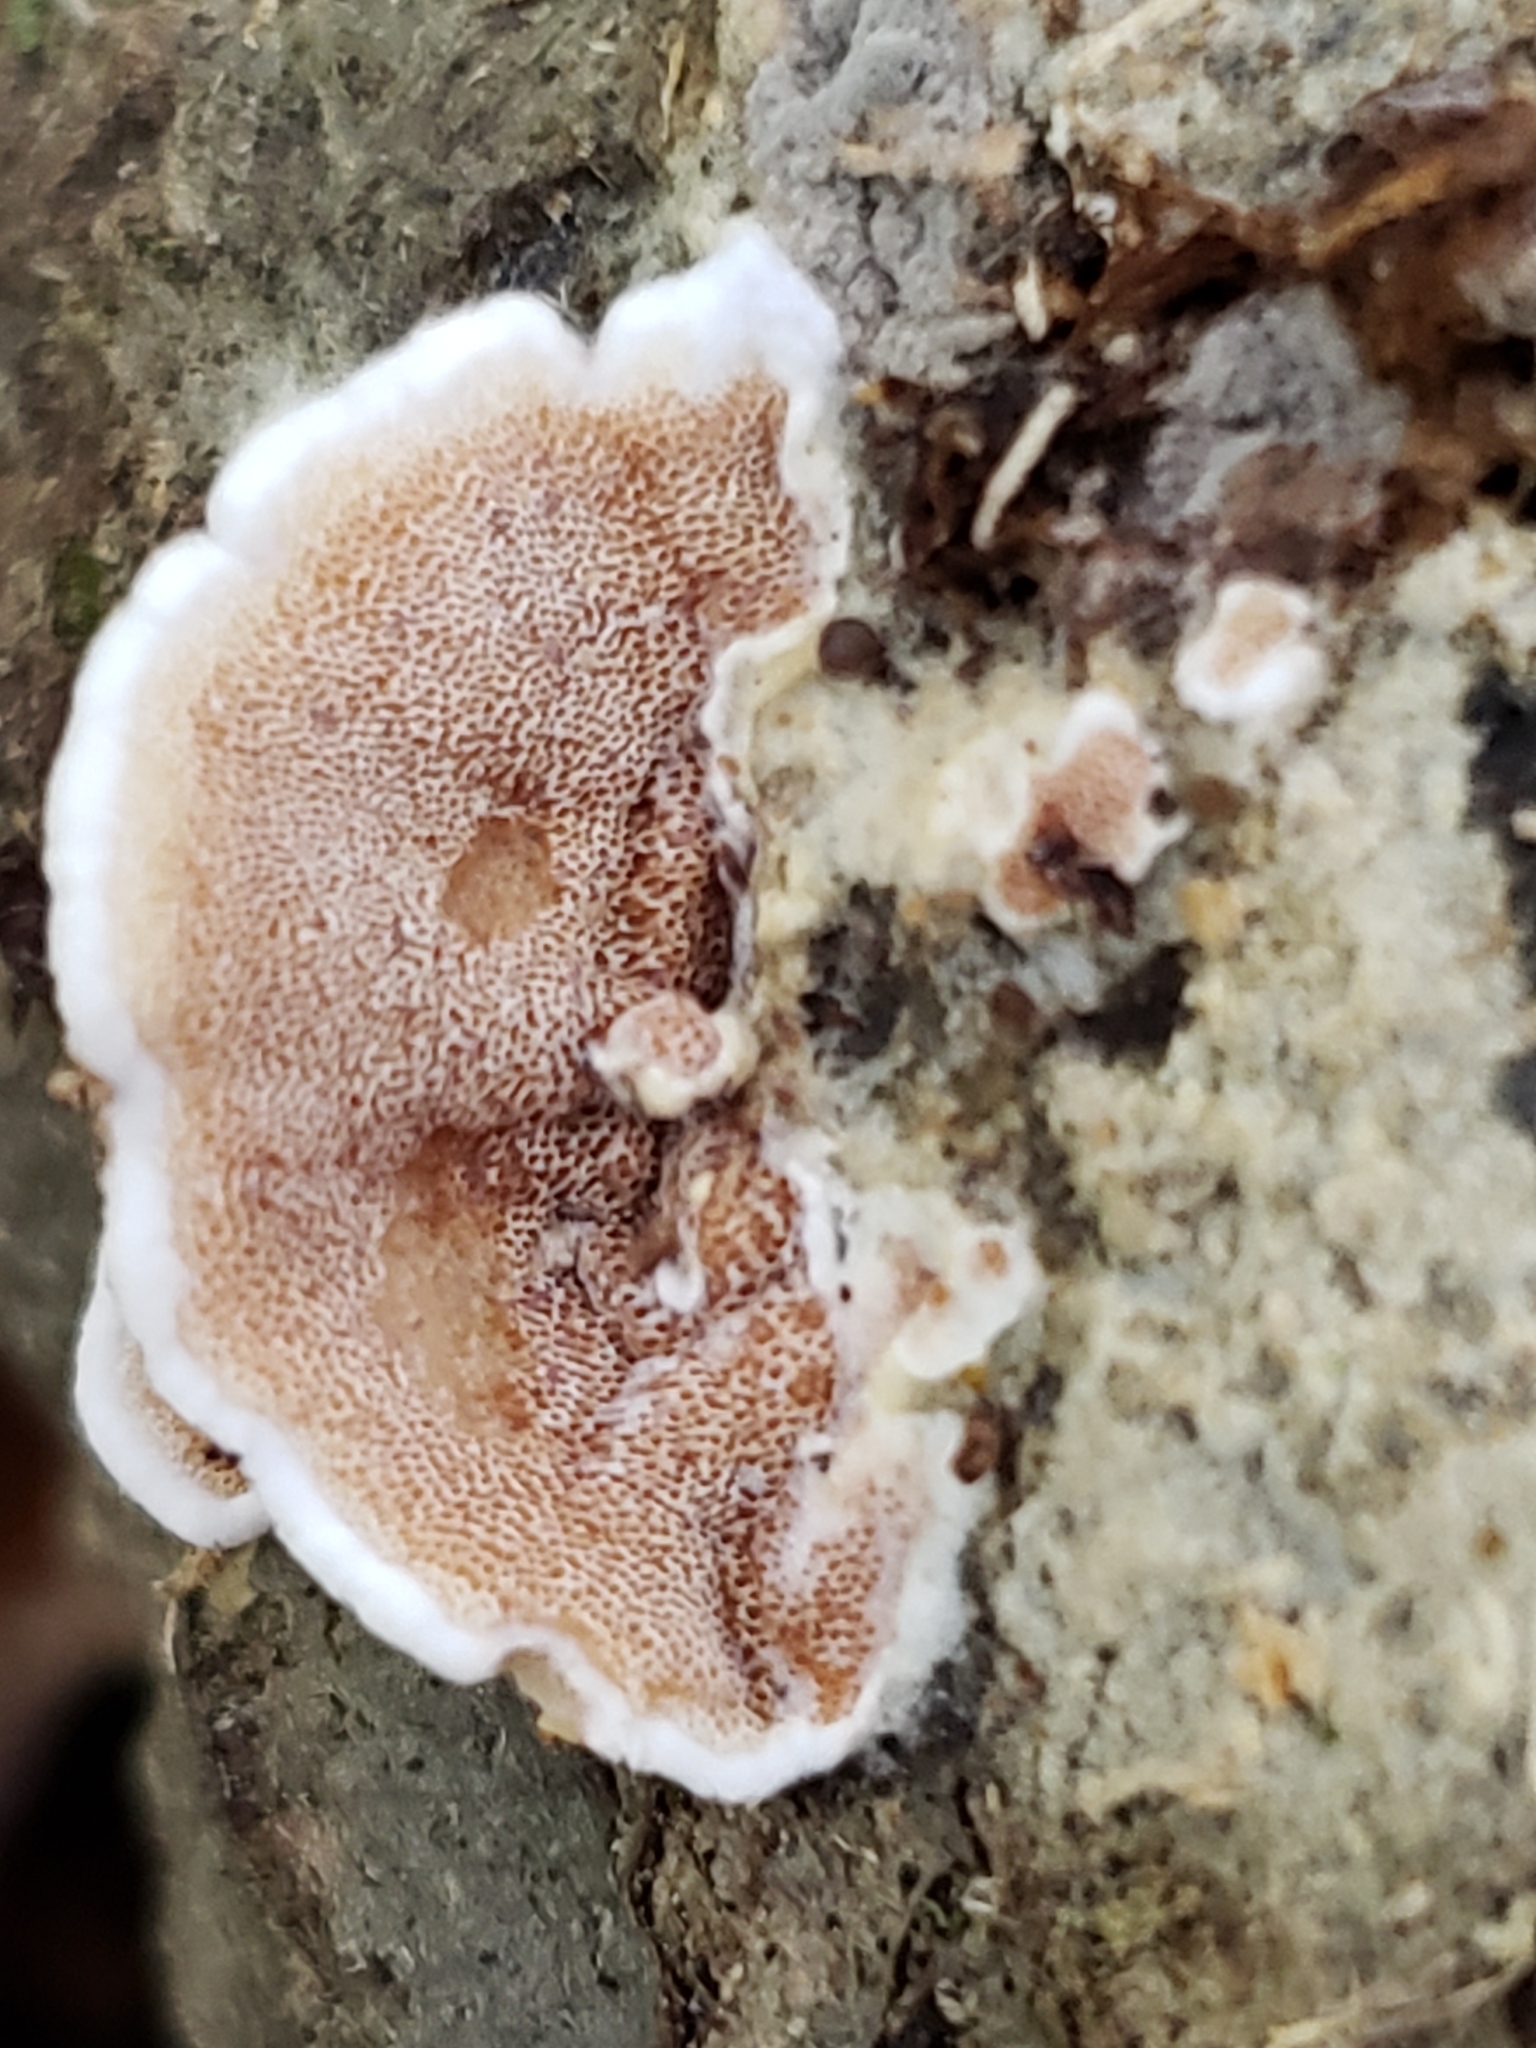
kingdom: Fungi
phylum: Basidiomycota
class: Agaricomycetes
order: Polyporales
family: Irpicaceae
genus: Vitreoporus
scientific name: Vitreoporus dichrous
